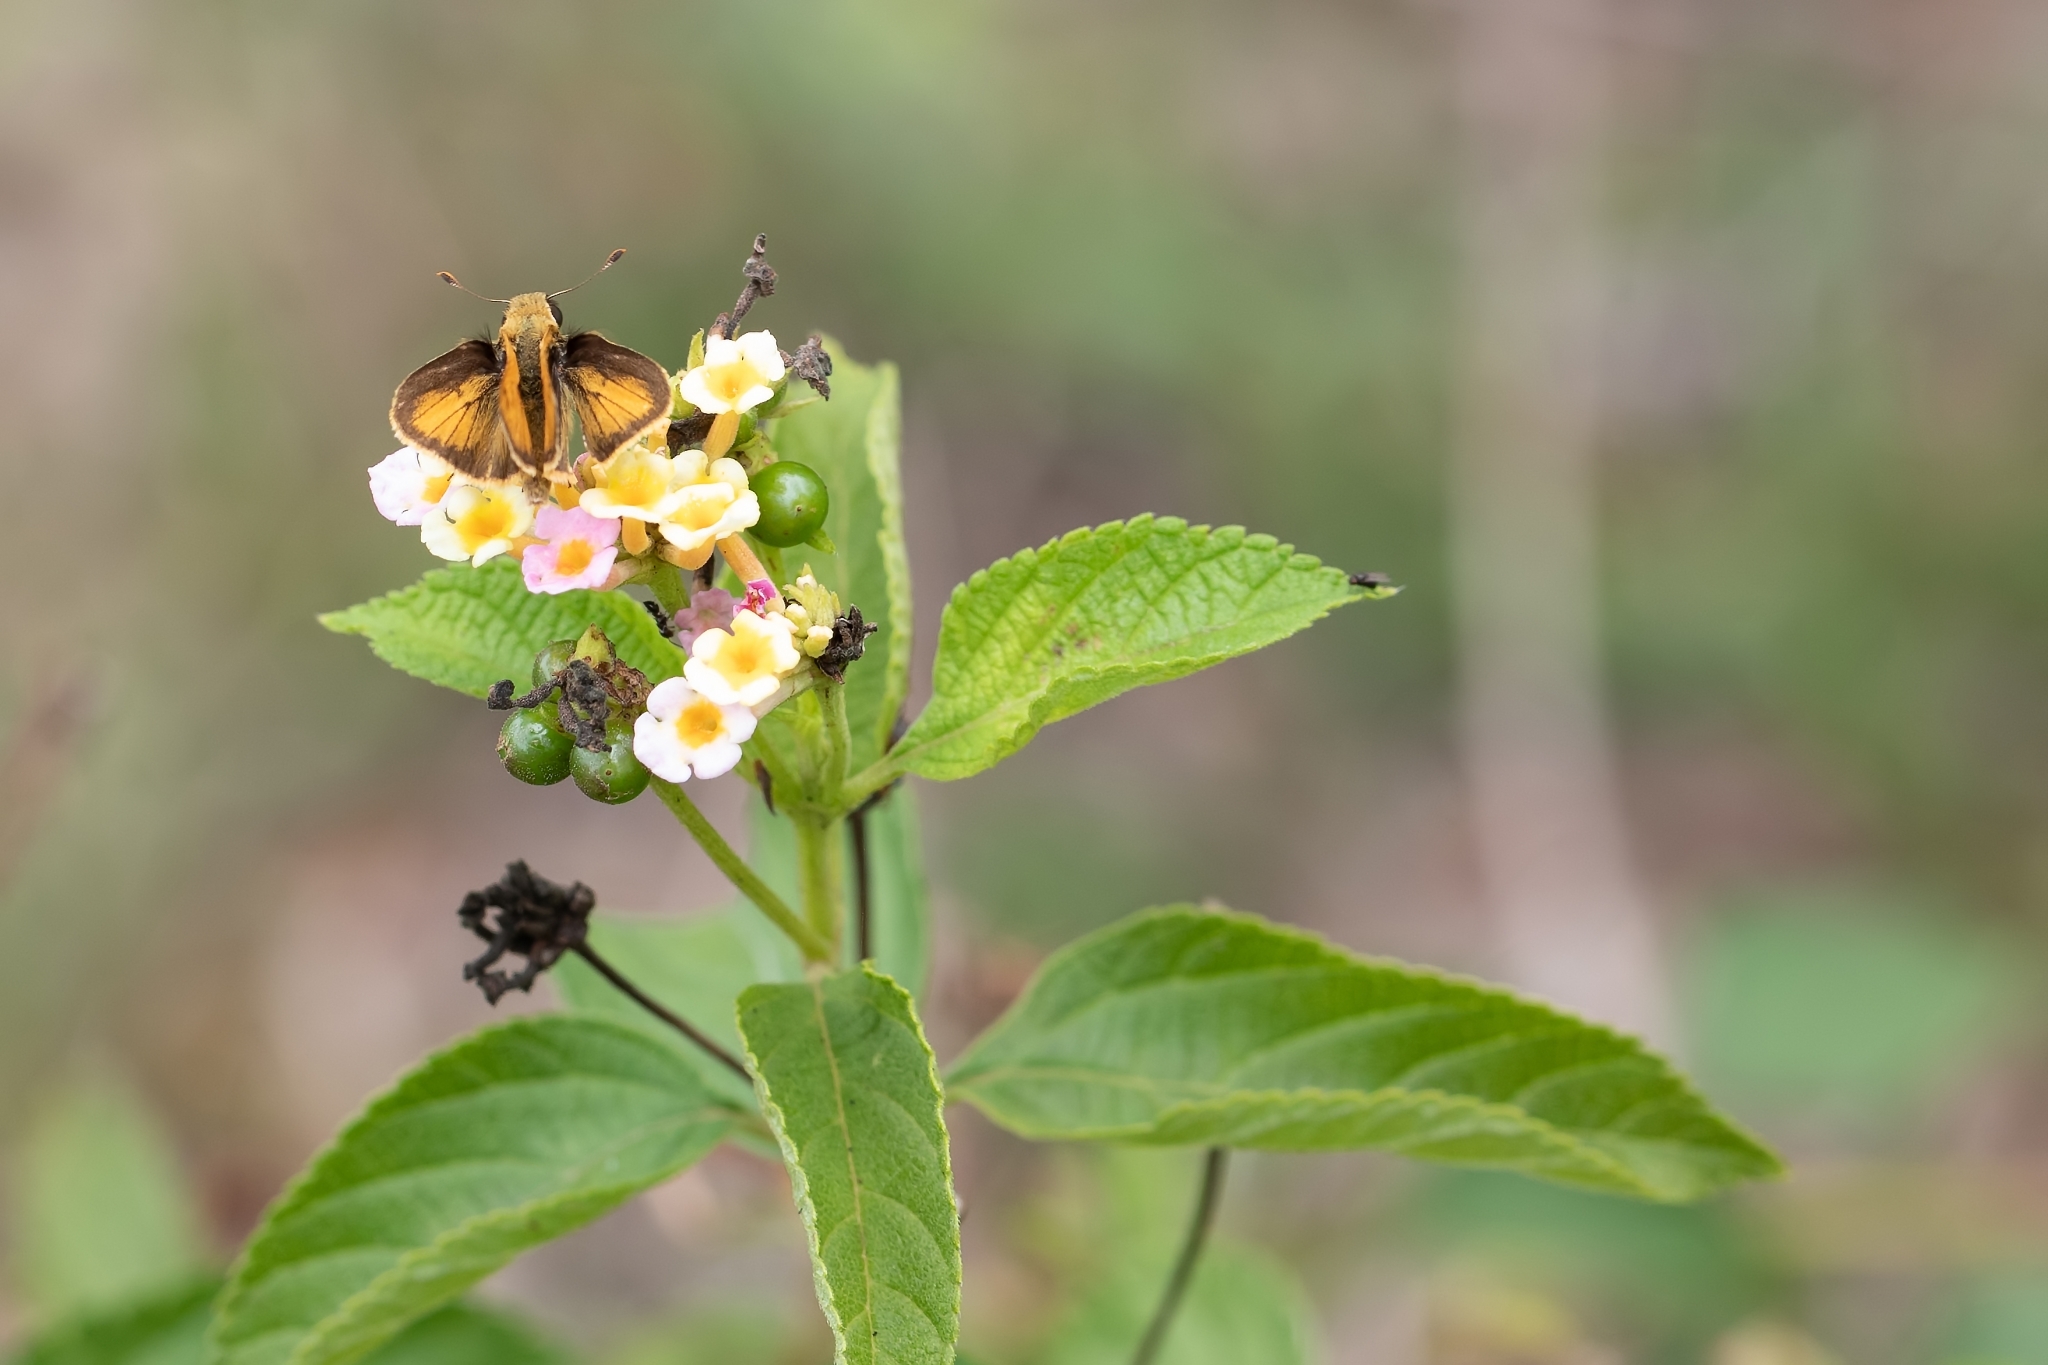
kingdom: Animalia
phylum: Arthropoda
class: Insecta
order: Lepidoptera
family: Hesperiidae
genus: Polites
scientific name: Polites vibex
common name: Whirlabout
